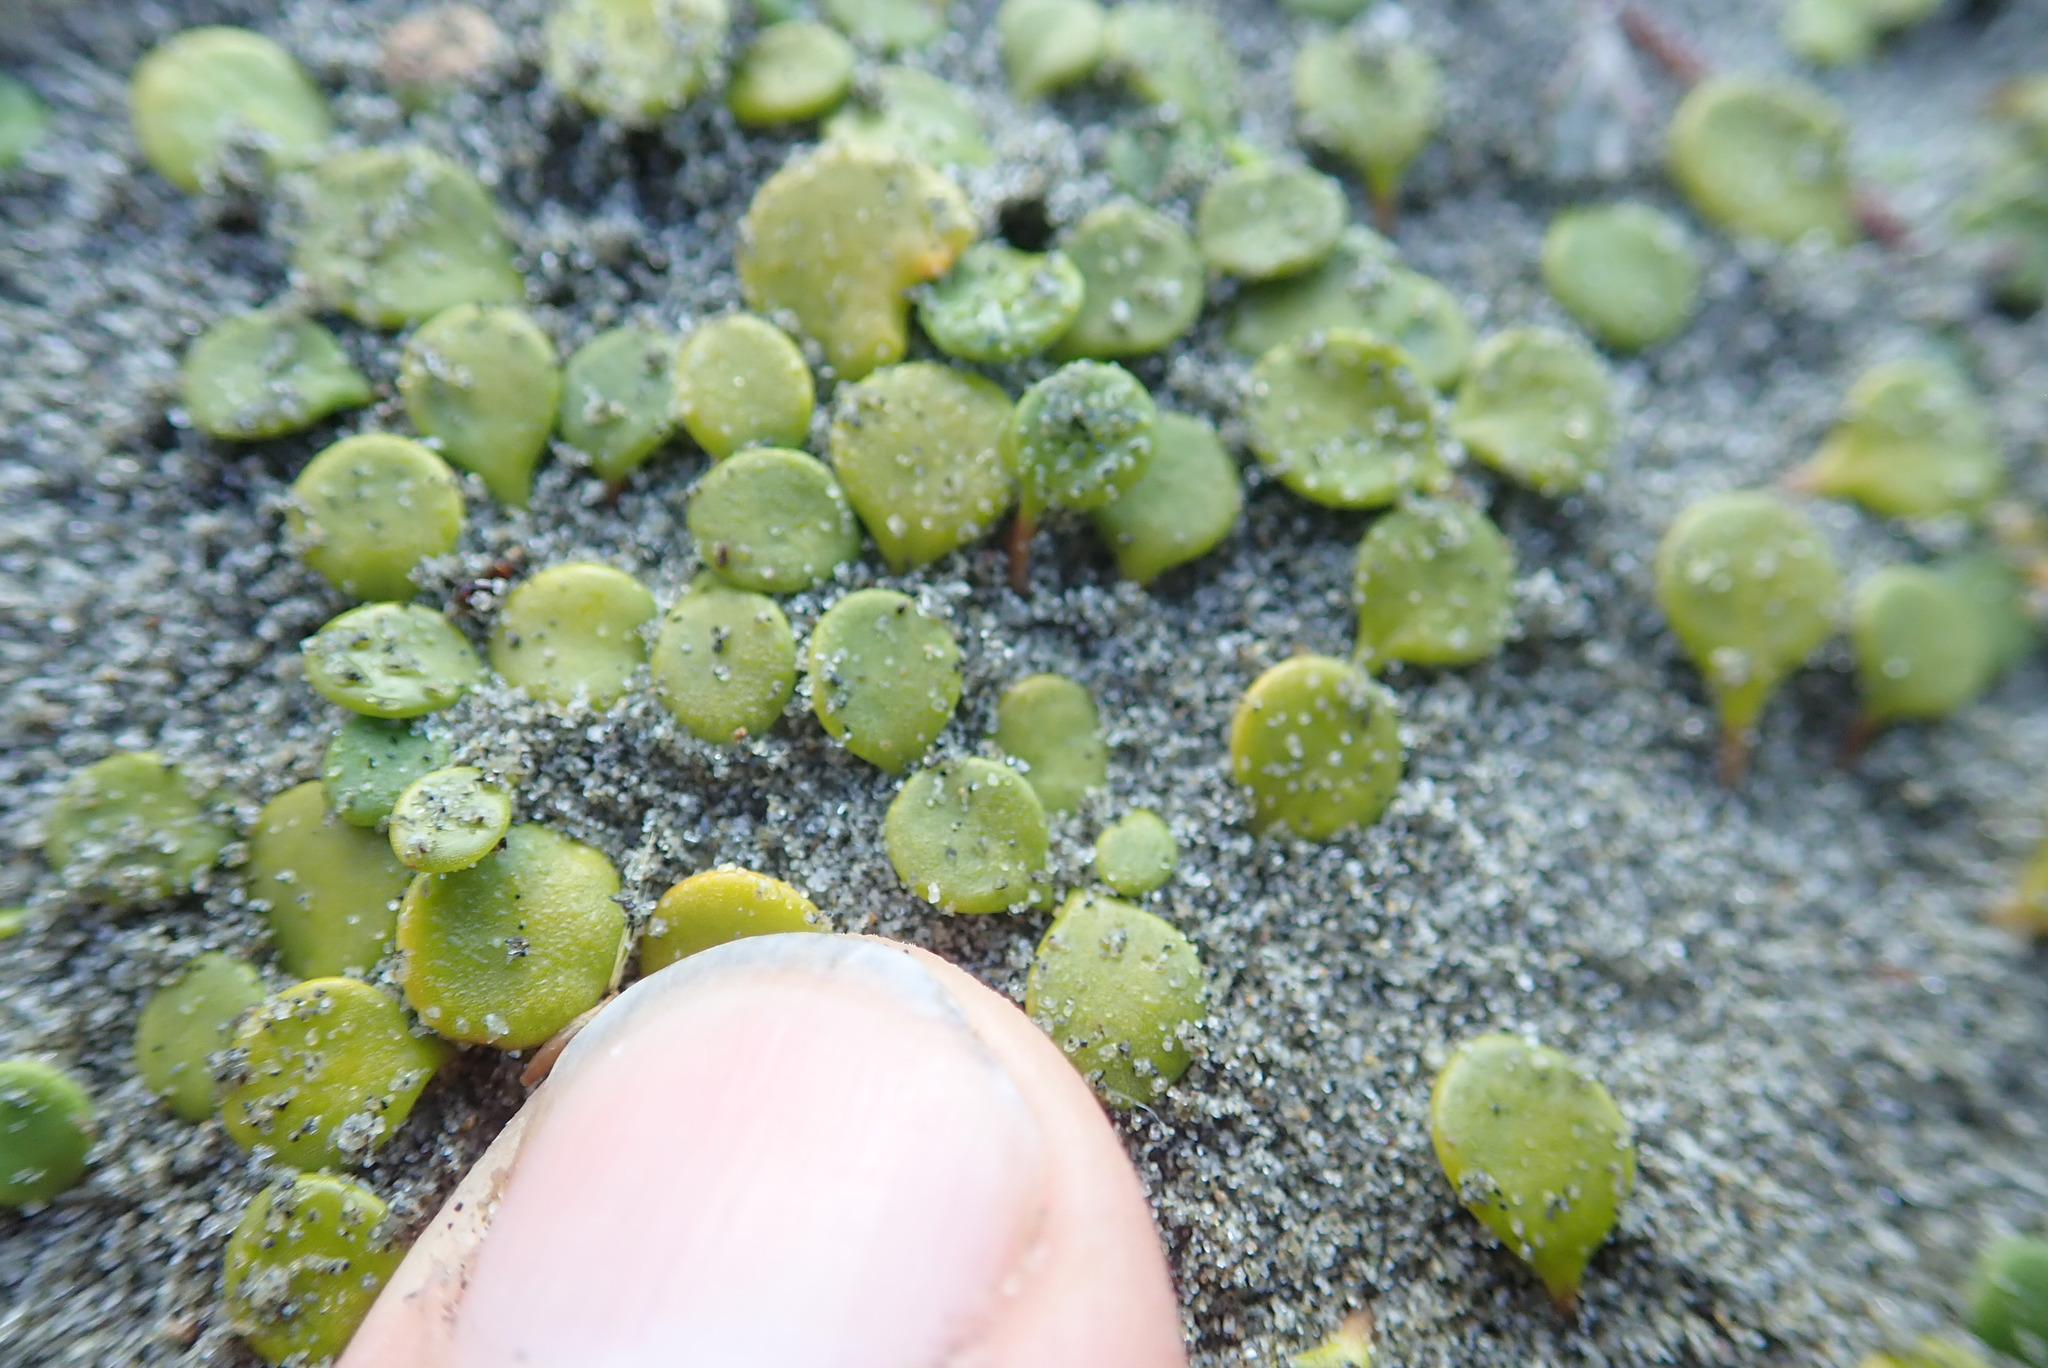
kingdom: Plantae
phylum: Tracheophyta
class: Magnoliopsida
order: Asterales
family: Goodeniaceae
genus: Goodenia
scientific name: Goodenia heenanii
